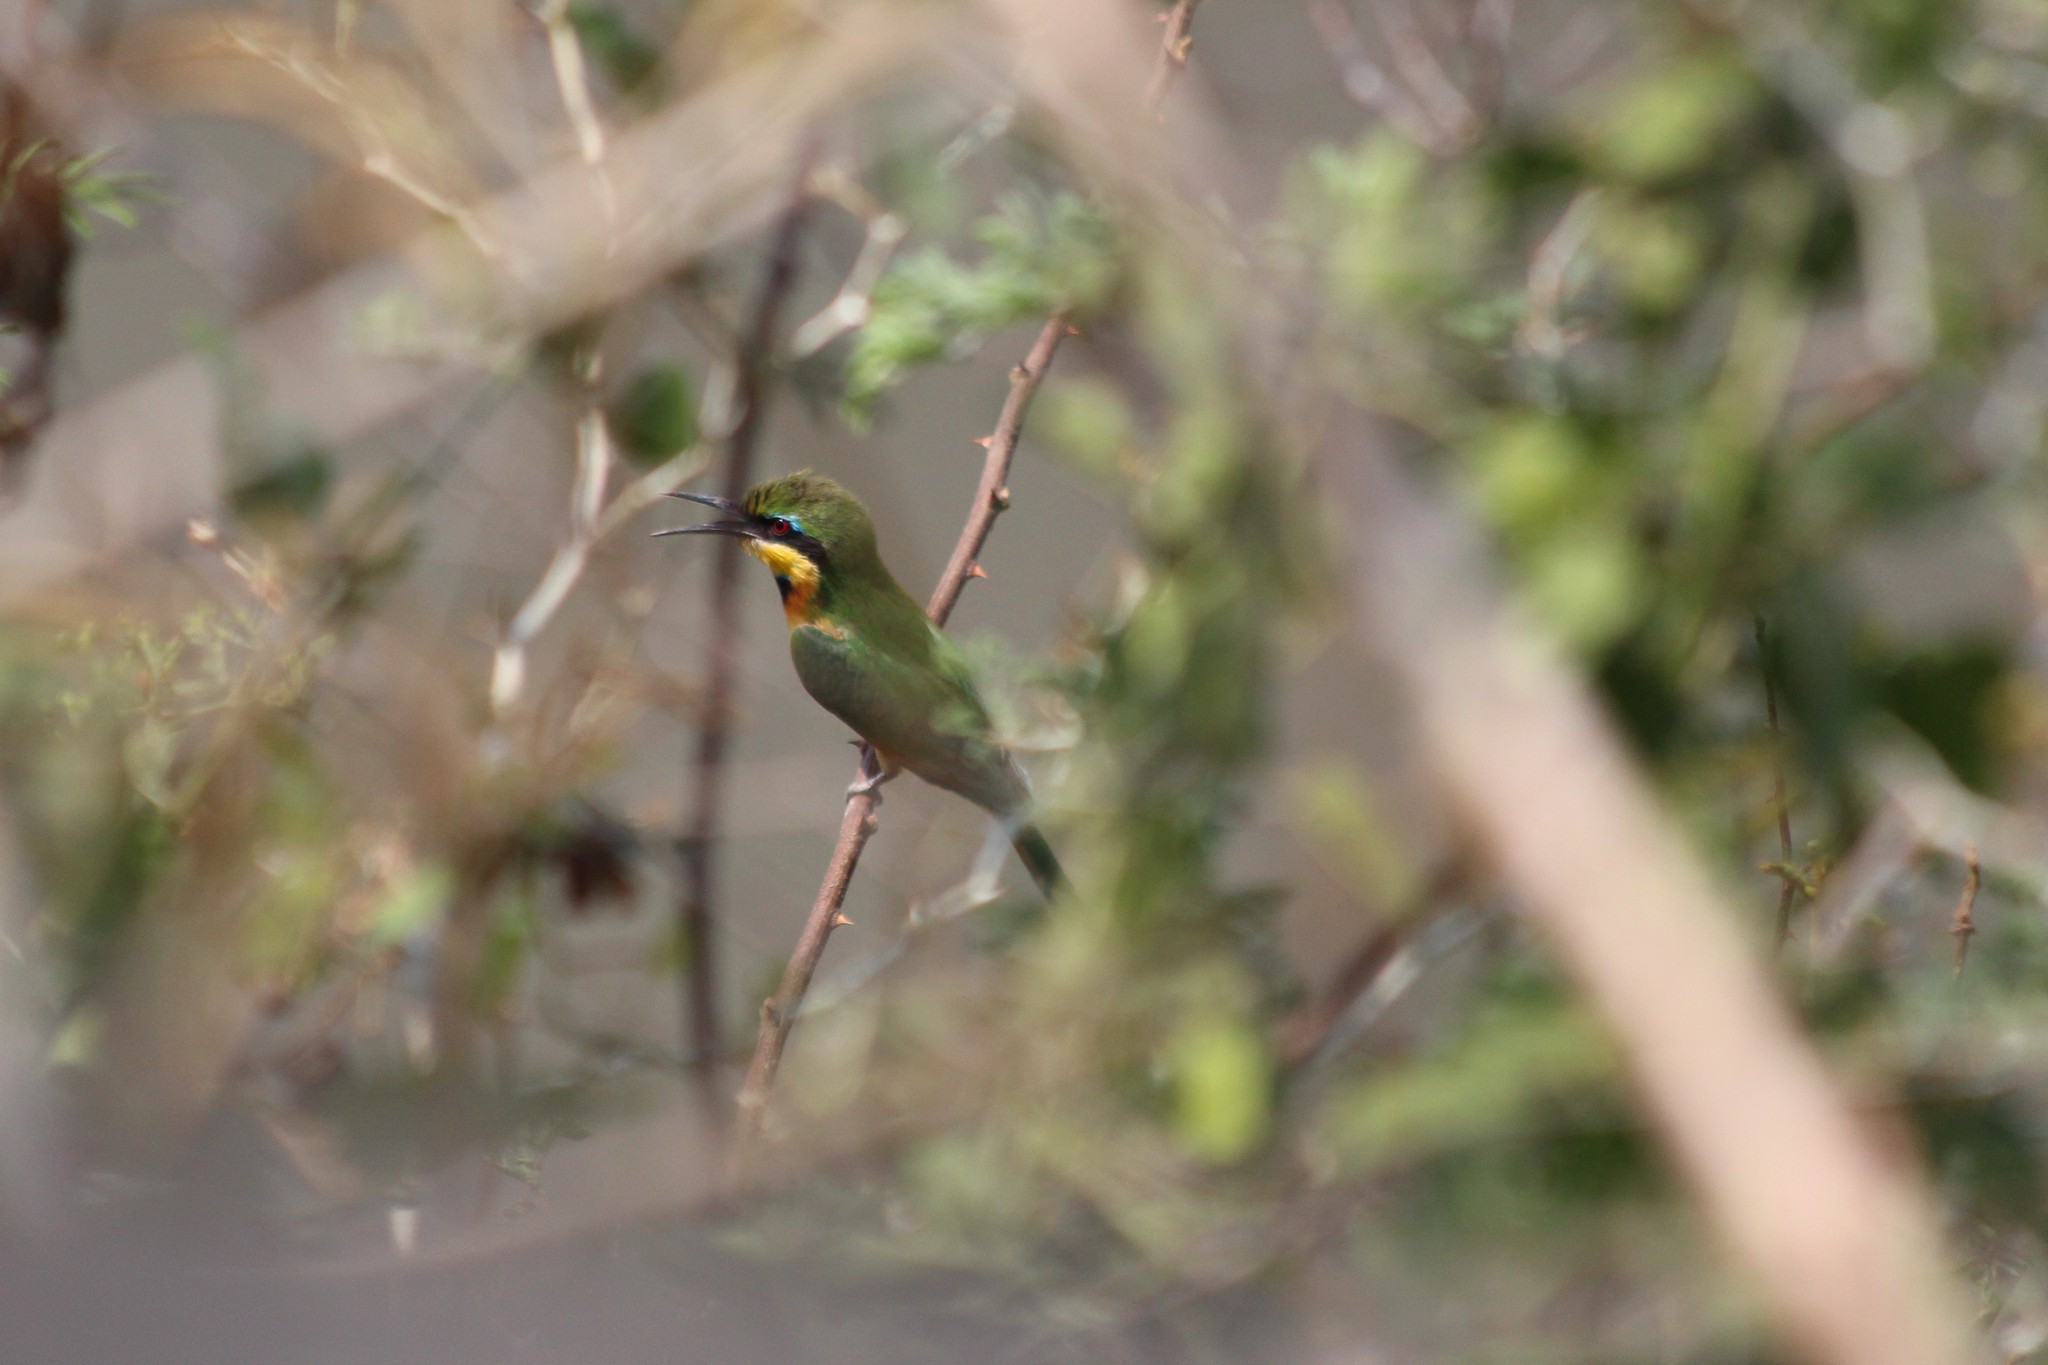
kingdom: Animalia
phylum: Chordata
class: Aves
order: Coraciiformes
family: Meropidae
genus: Merops
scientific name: Merops pusillus
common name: Little bee-eater
